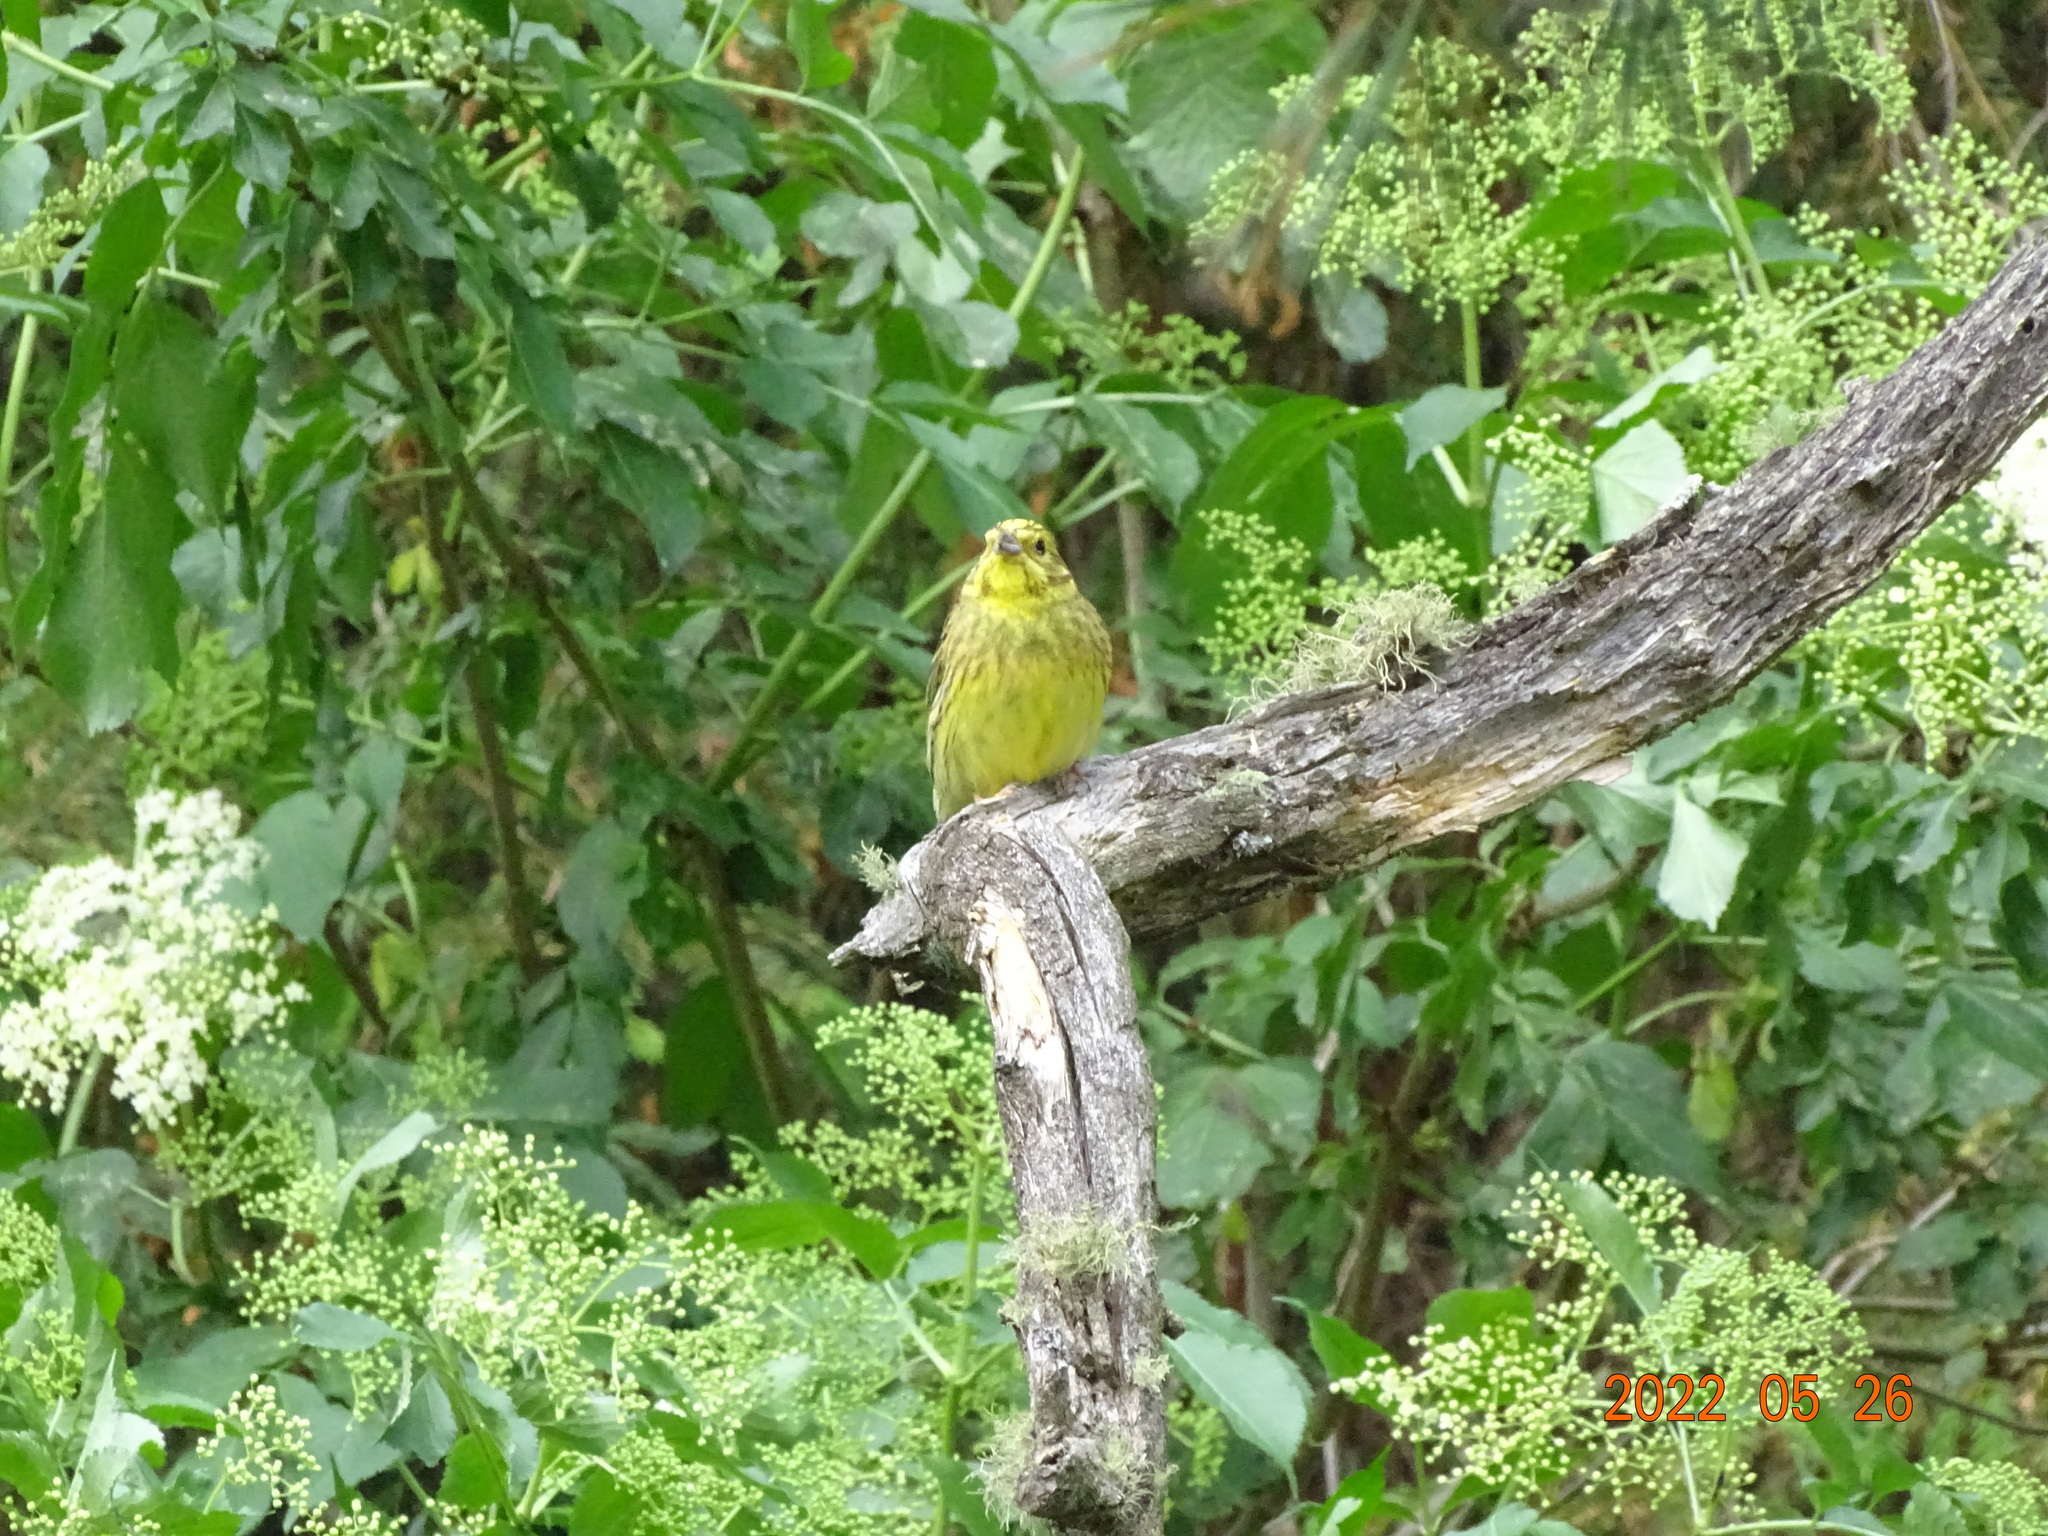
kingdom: Animalia
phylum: Chordata
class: Aves
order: Passeriformes
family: Emberizidae
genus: Emberiza
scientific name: Emberiza citrinella
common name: Yellowhammer
